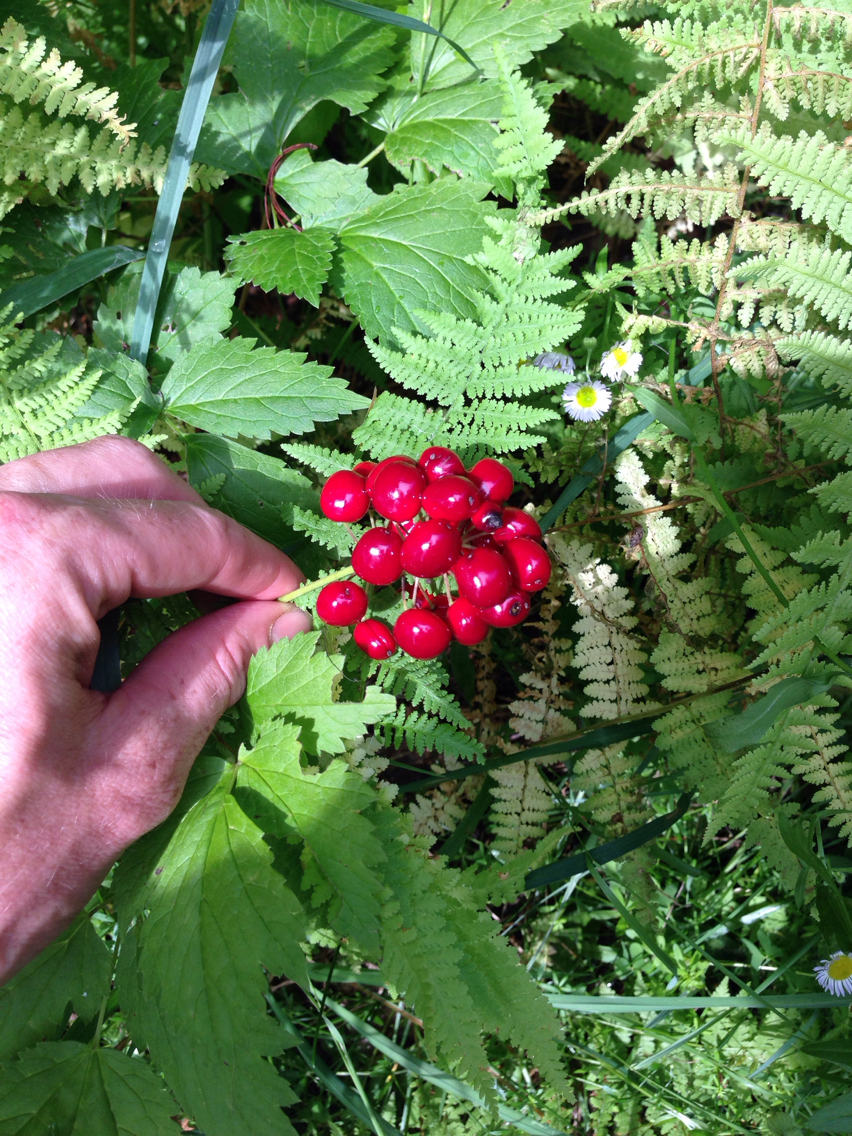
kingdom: Plantae
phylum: Tracheophyta
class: Magnoliopsida
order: Ranunculales
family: Ranunculaceae
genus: Actaea
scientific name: Actaea rubra
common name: Red baneberry
